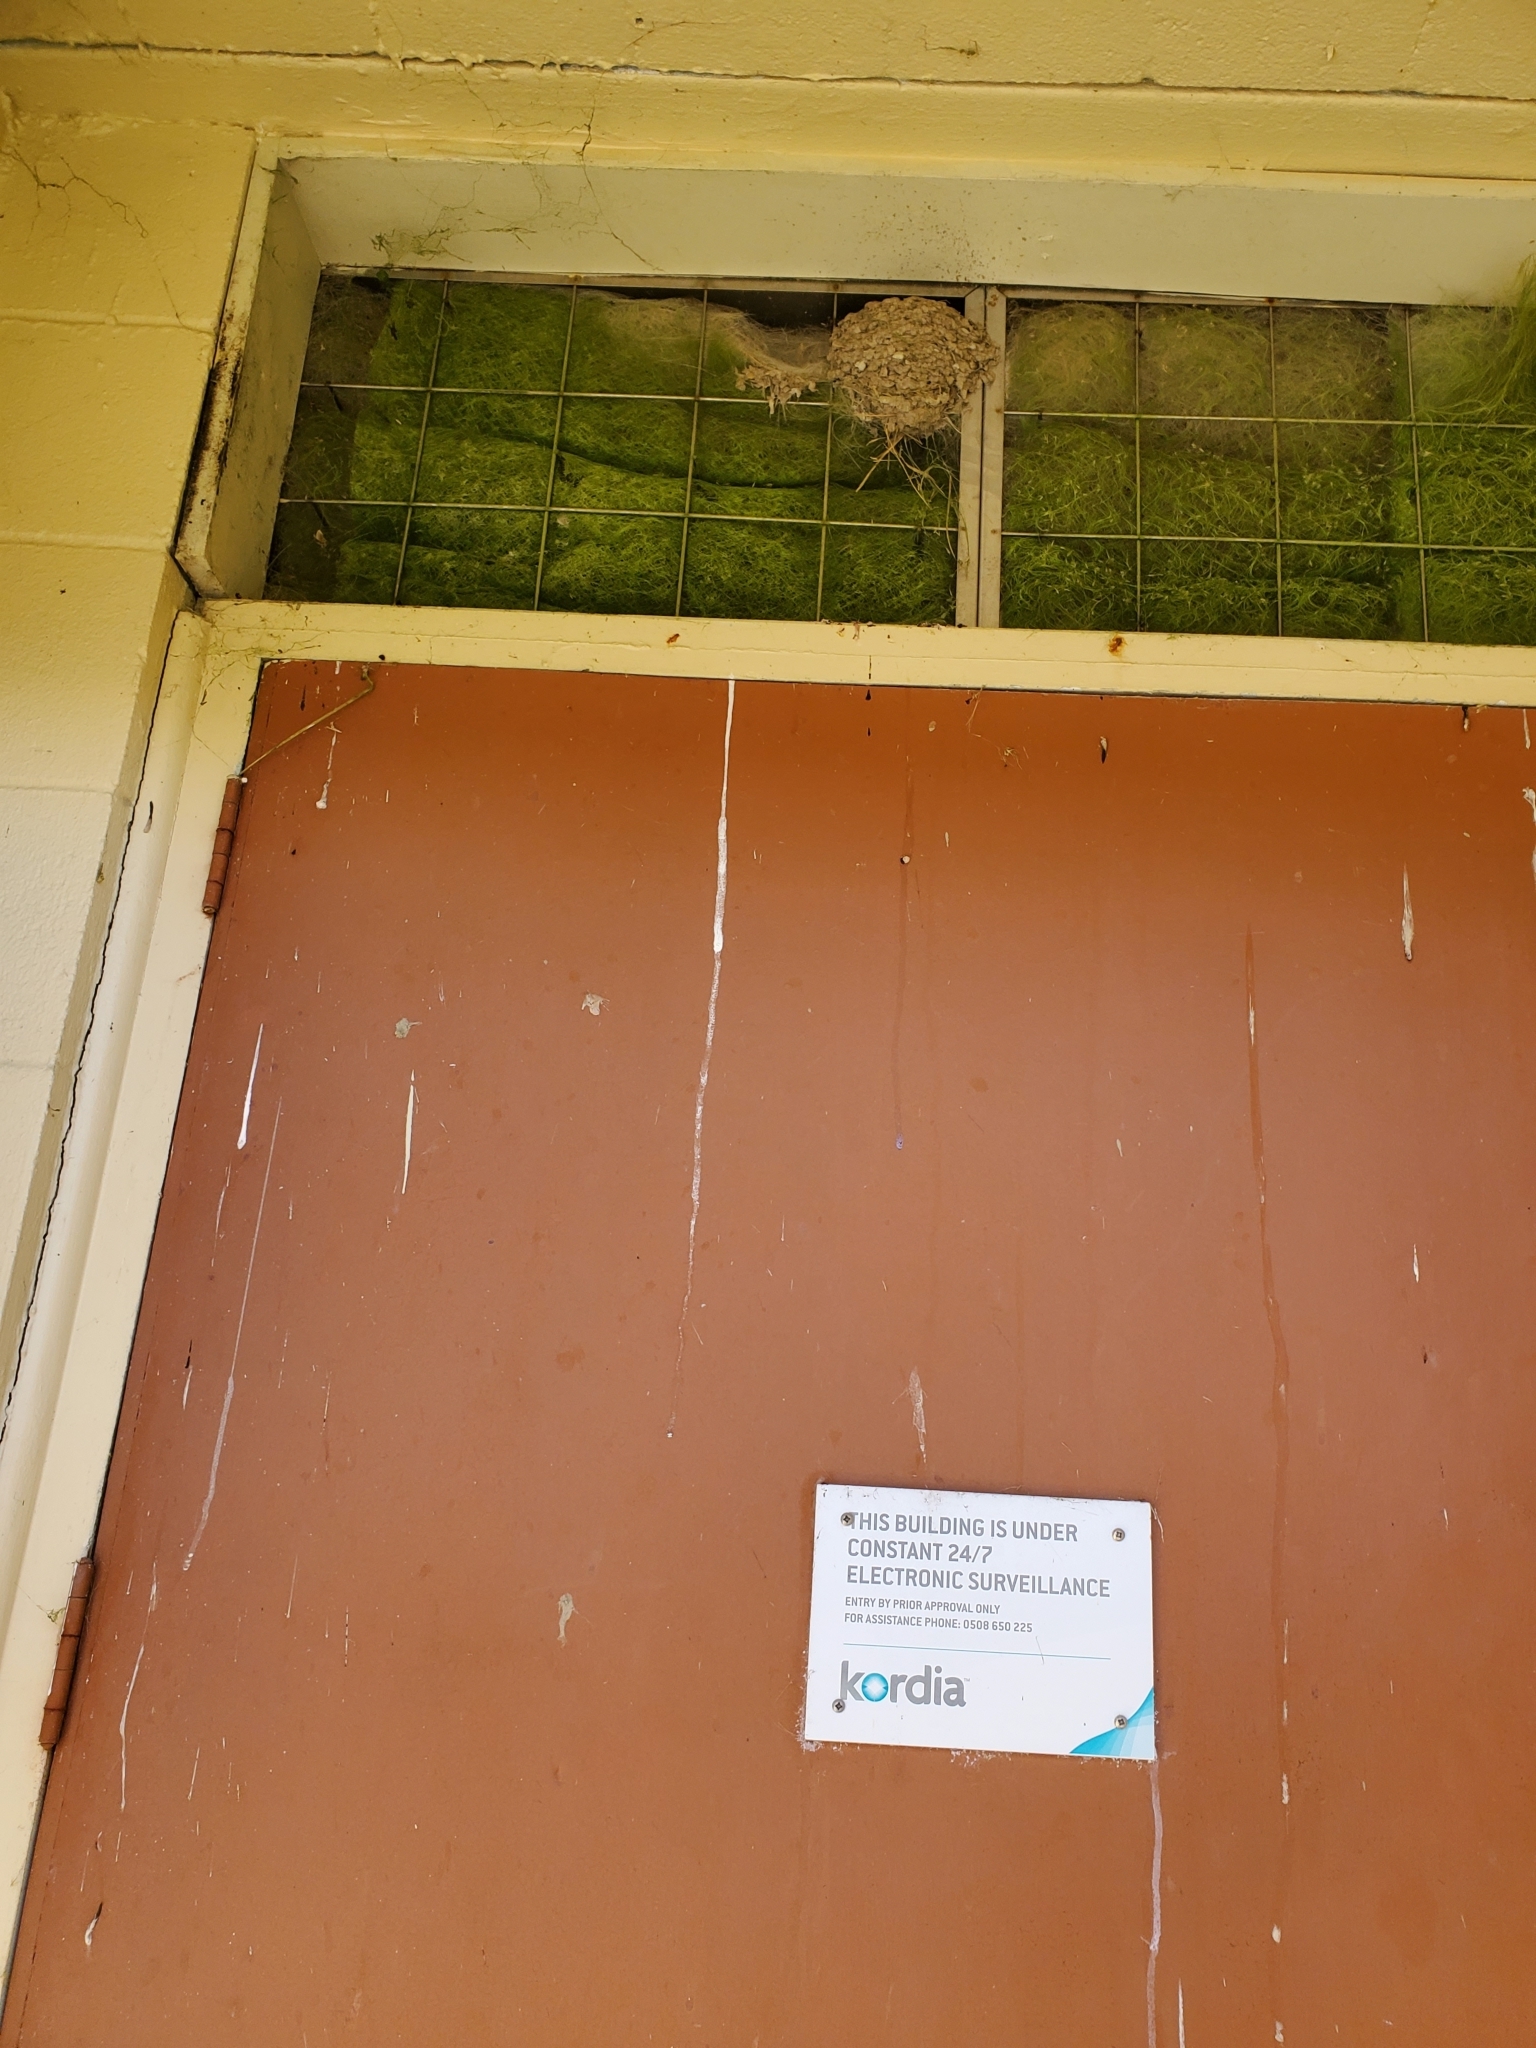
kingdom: Animalia
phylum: Chordata
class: Aves
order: Passeriformes
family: Hirundinidae
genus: Hirundo
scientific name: Hirundo neoxena
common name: Welcome swallow
